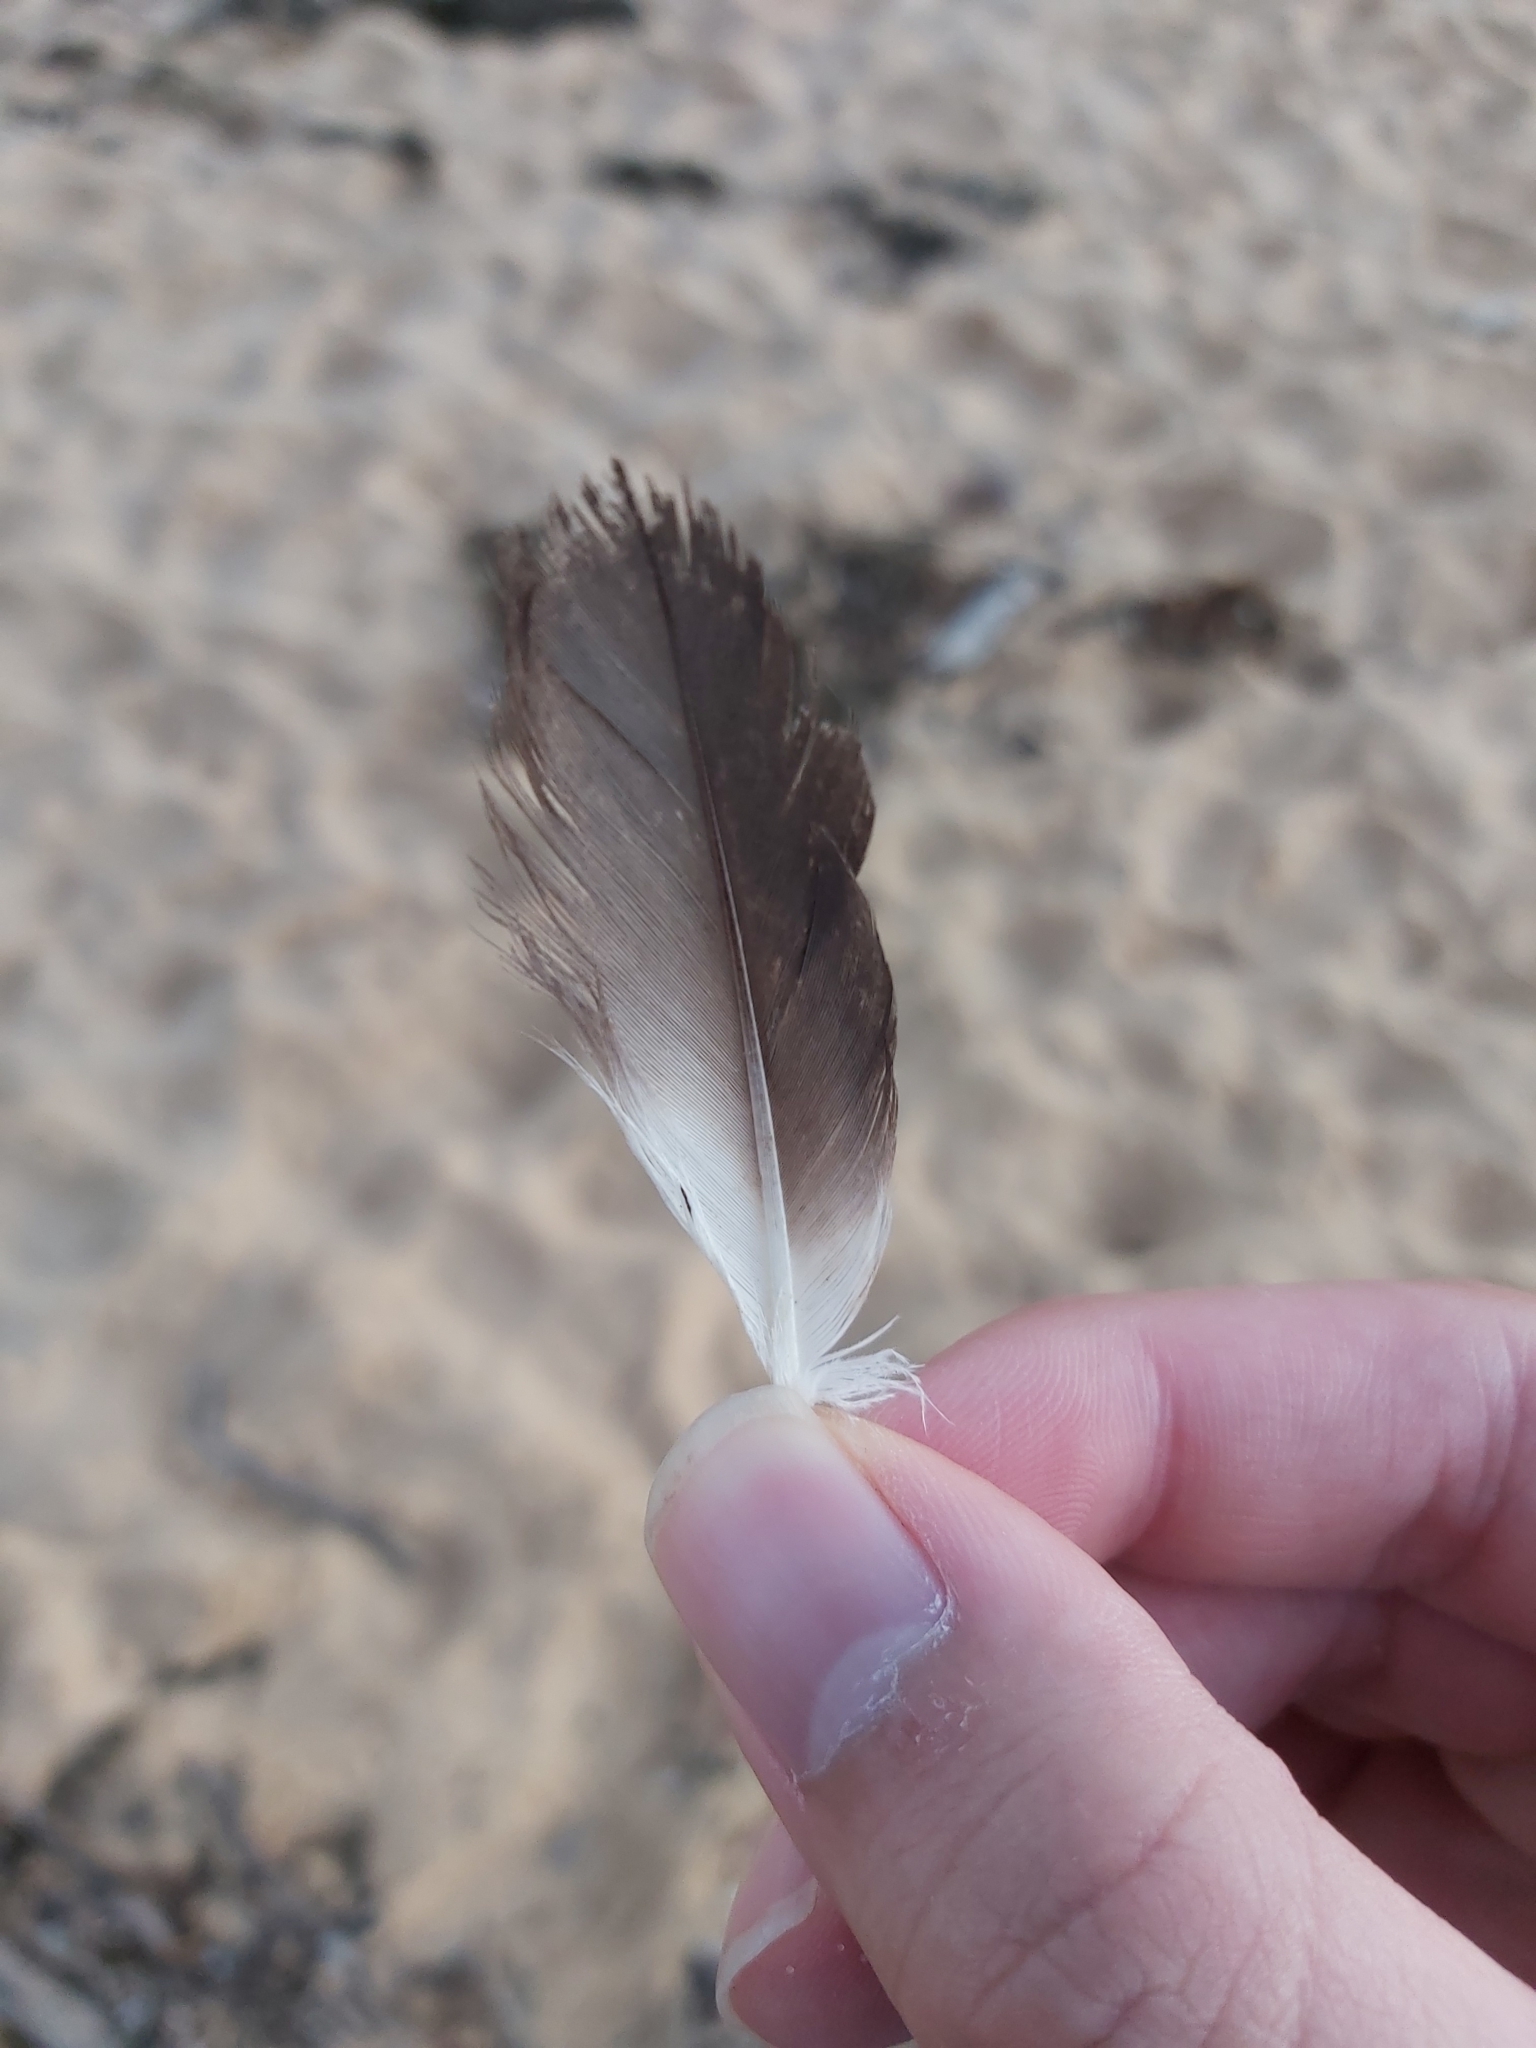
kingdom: Animalia
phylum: Chordata
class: Aves
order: Suliformes
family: Sulidae
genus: Morus
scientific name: Morus serrator
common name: Australasian gannet
